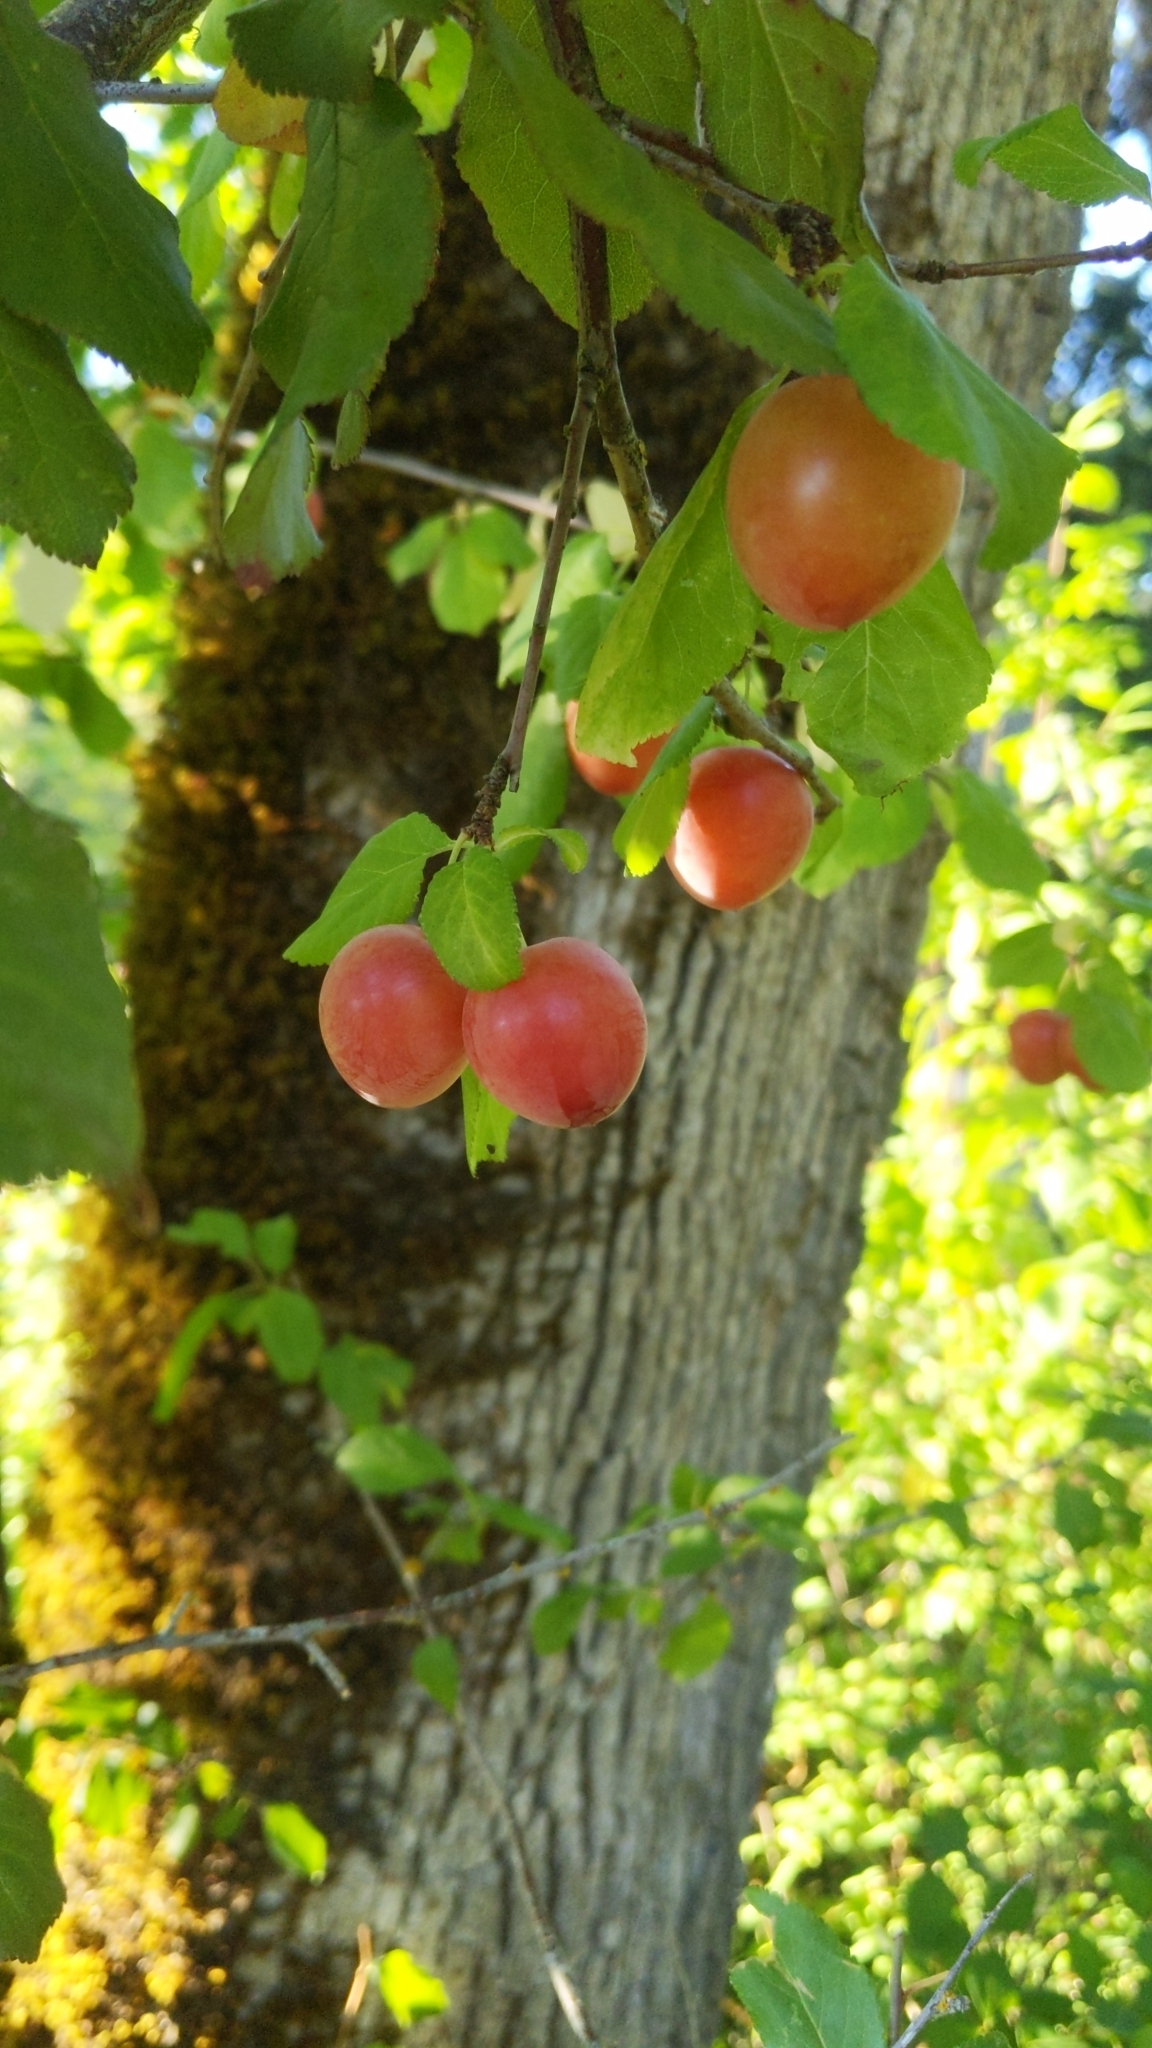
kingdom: Plantae
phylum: Tracheophyta
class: Magnoliopsida
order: Rosales
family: Rosaceae
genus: Prunus
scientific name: Prunus cerasifera
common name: Cherry plum
